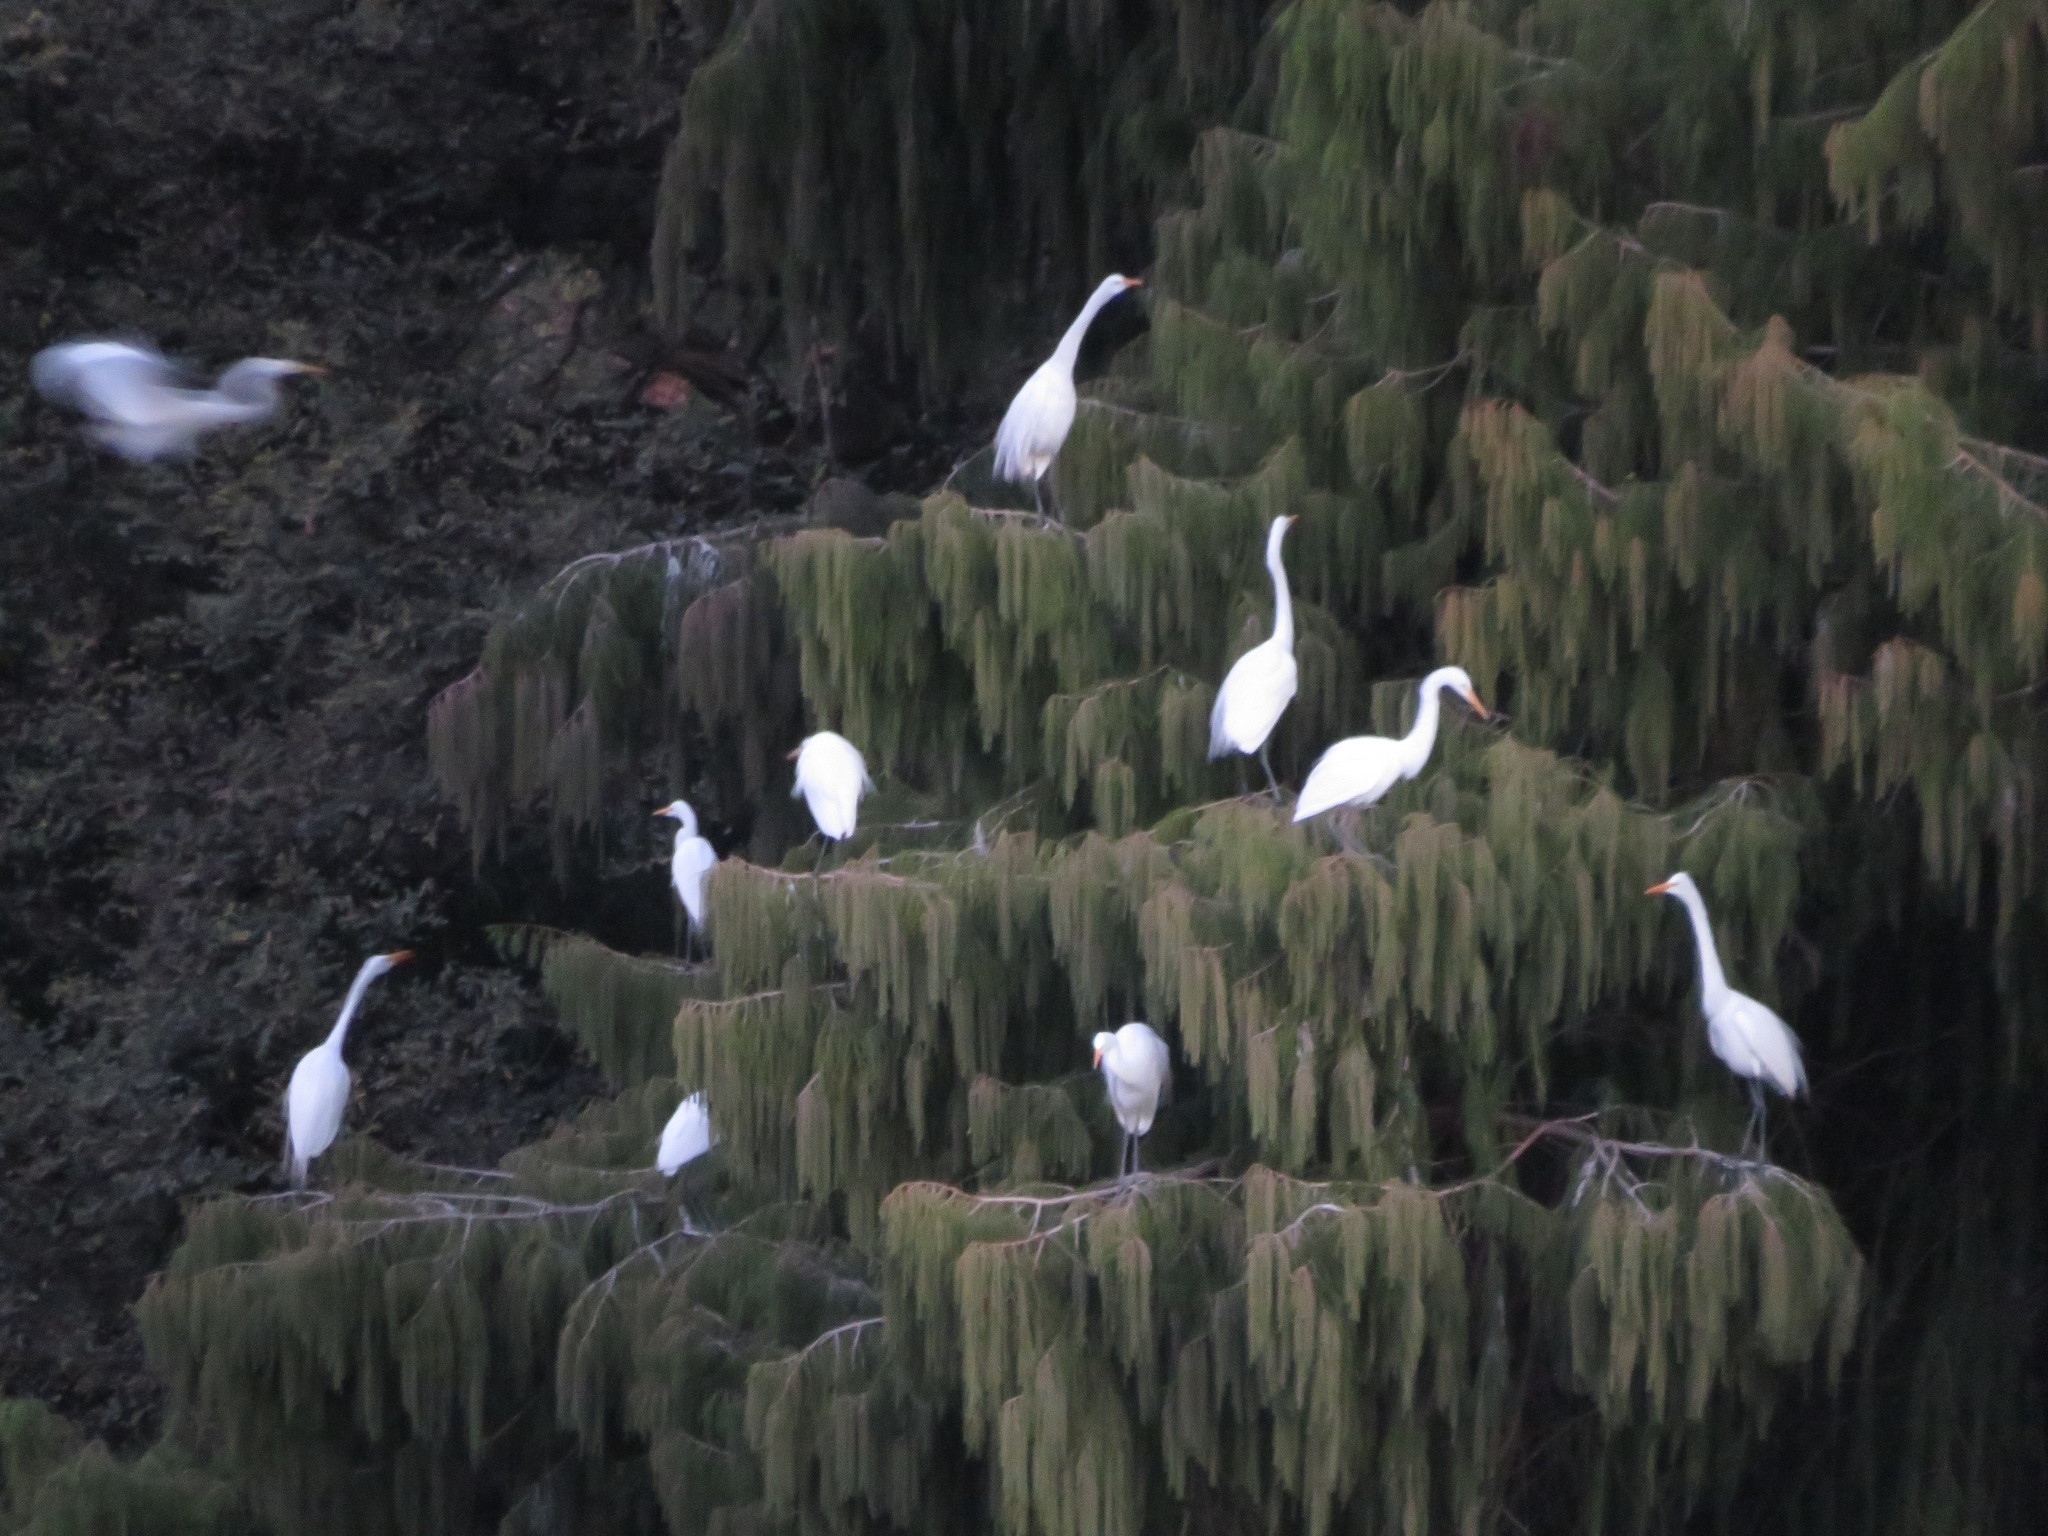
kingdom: Animalia
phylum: Chordata
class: Aves
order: Pelecaniformes
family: Ardeidae
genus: Ardea
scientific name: Ardea alba
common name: Great egret
